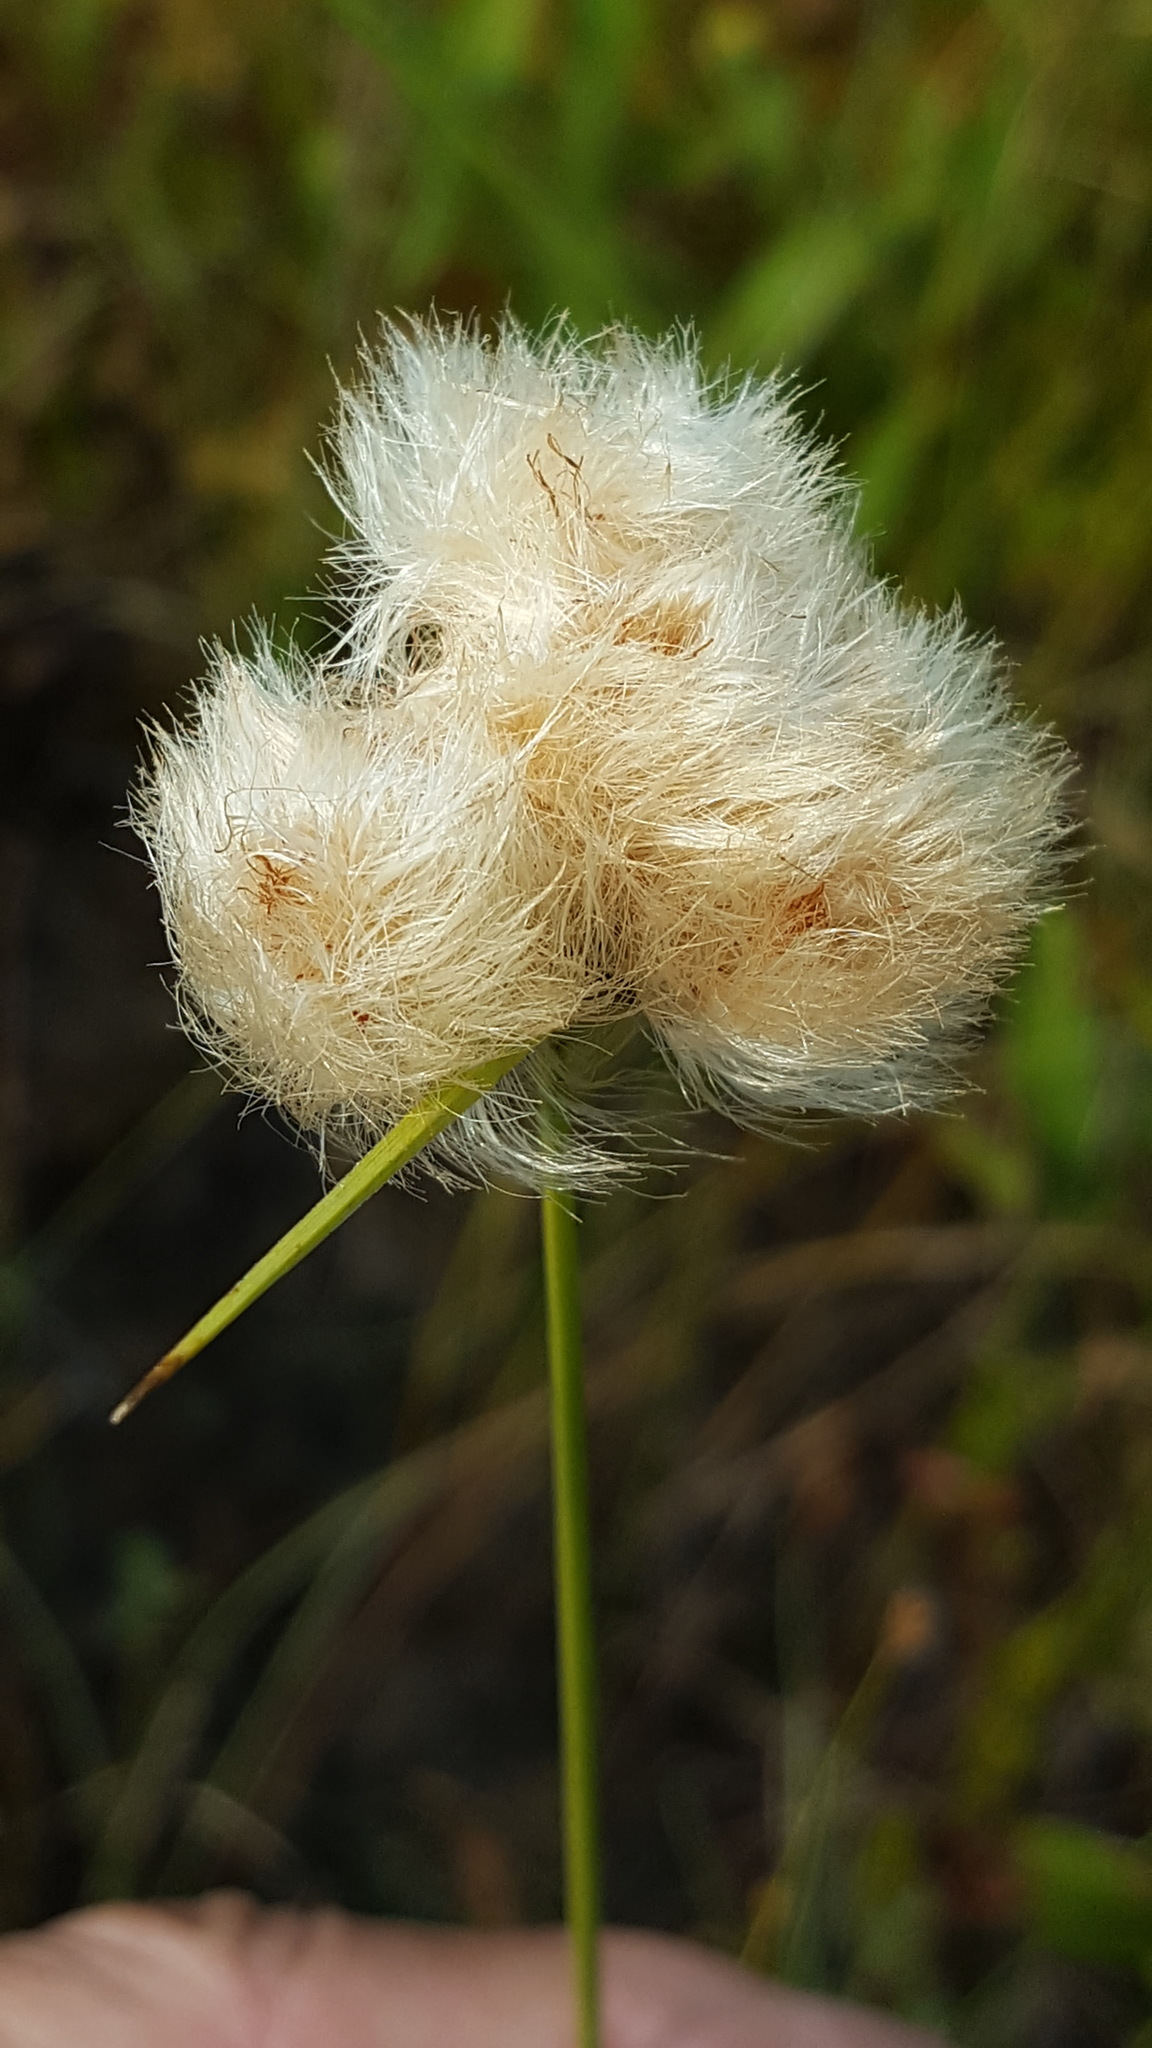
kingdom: Plantae
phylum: Tracheophyta
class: Liliopsida
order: Poales
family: Cyperaceae
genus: Eriophorum
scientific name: Eriophorum virginicum
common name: Tawny cottongrass
